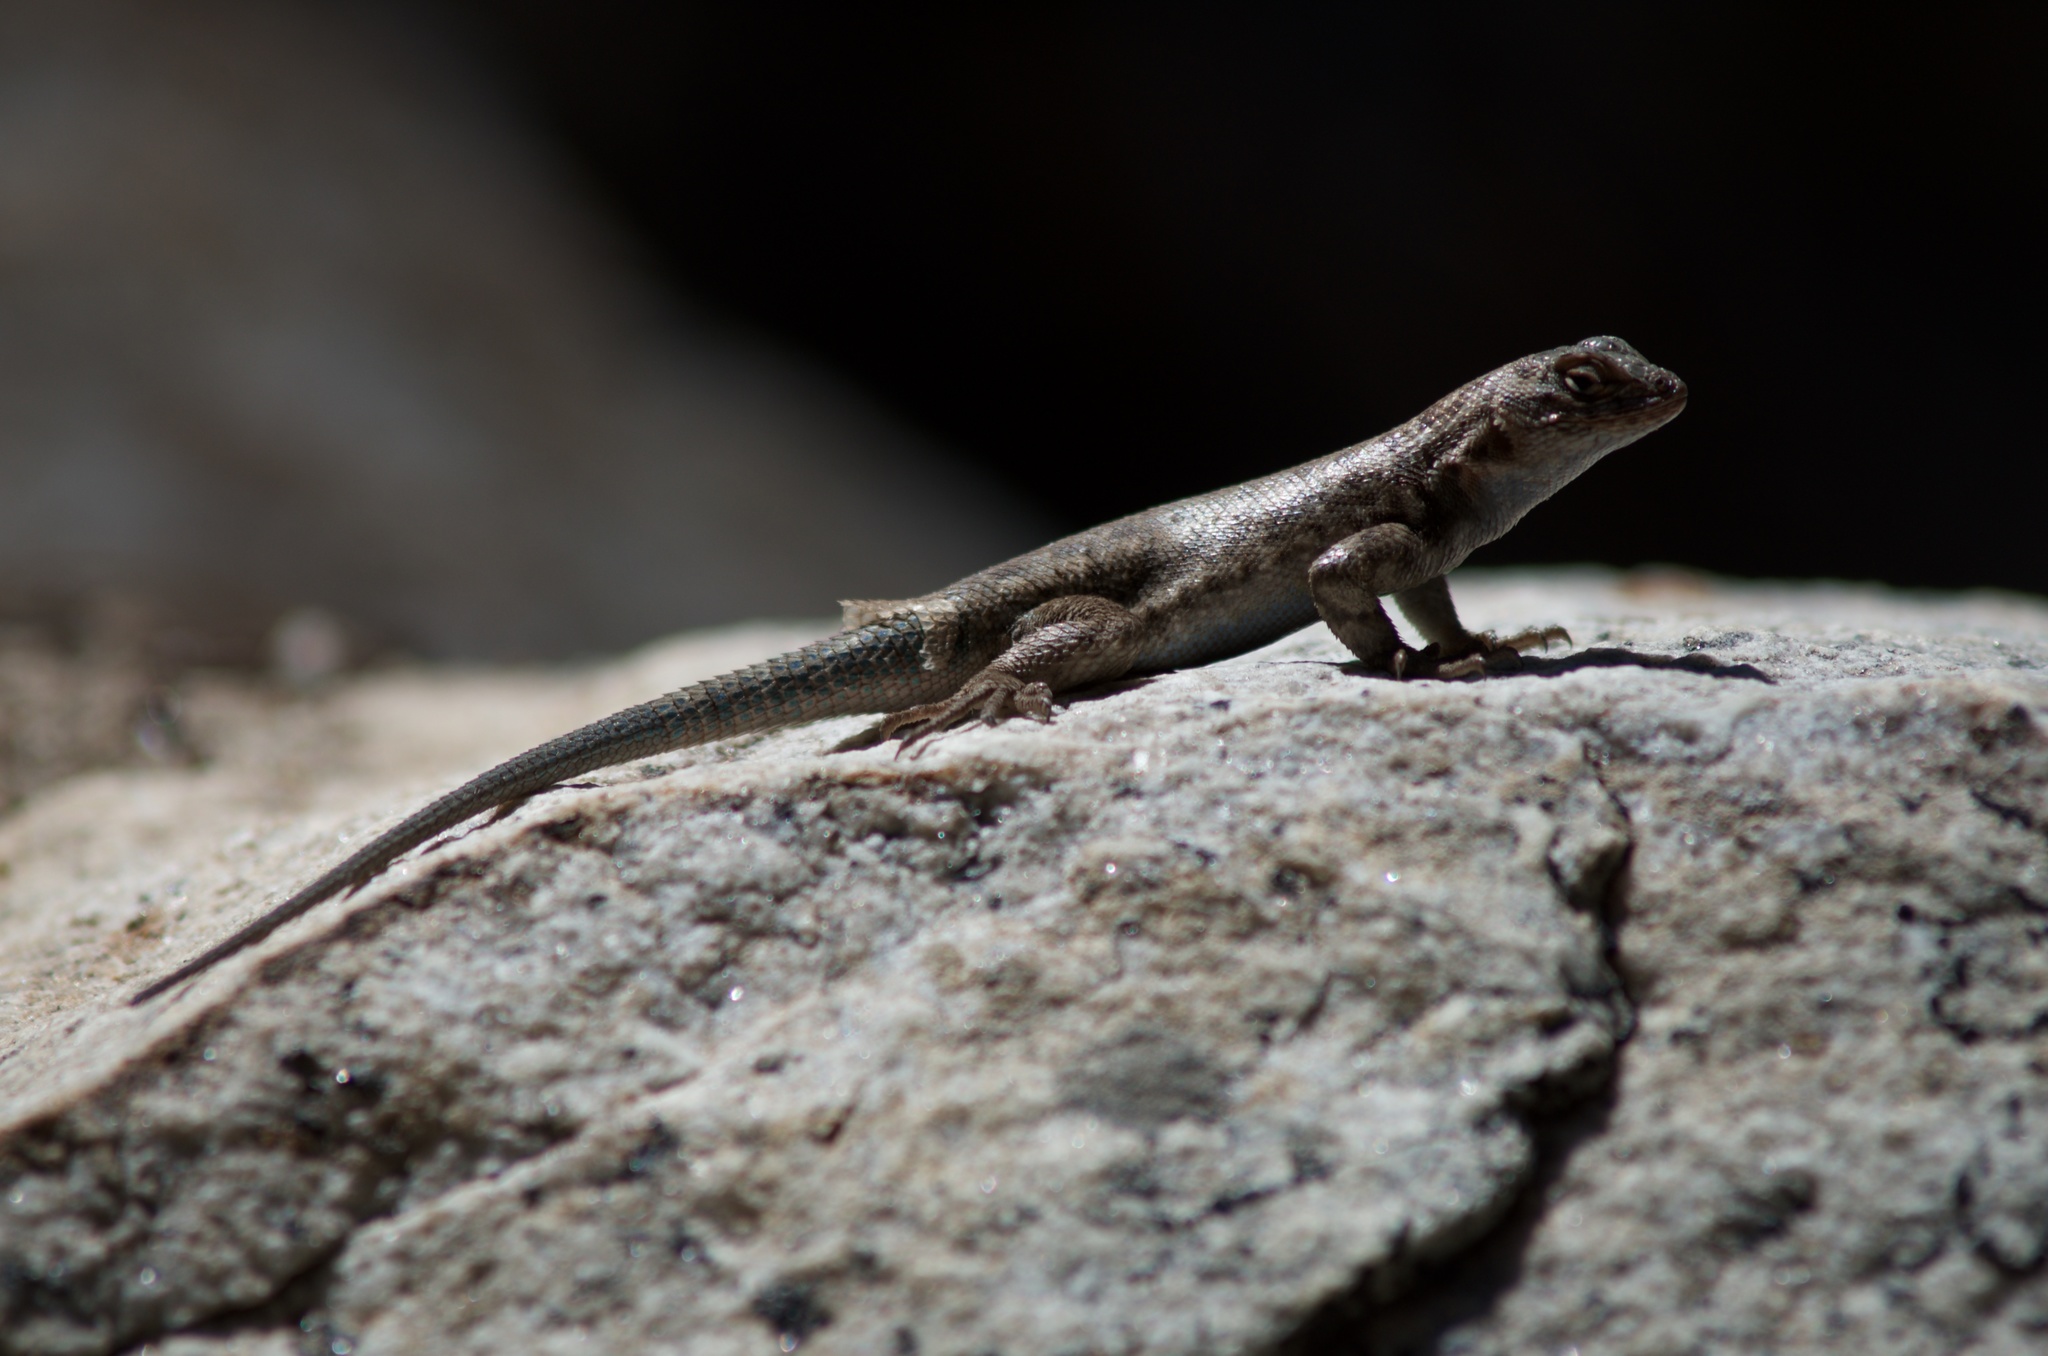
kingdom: Animalia
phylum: Chordata
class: Squamata
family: Phrynosomatidae
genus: Sceloporus
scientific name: Sceloporus graciosus
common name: Sagebrush lizard
